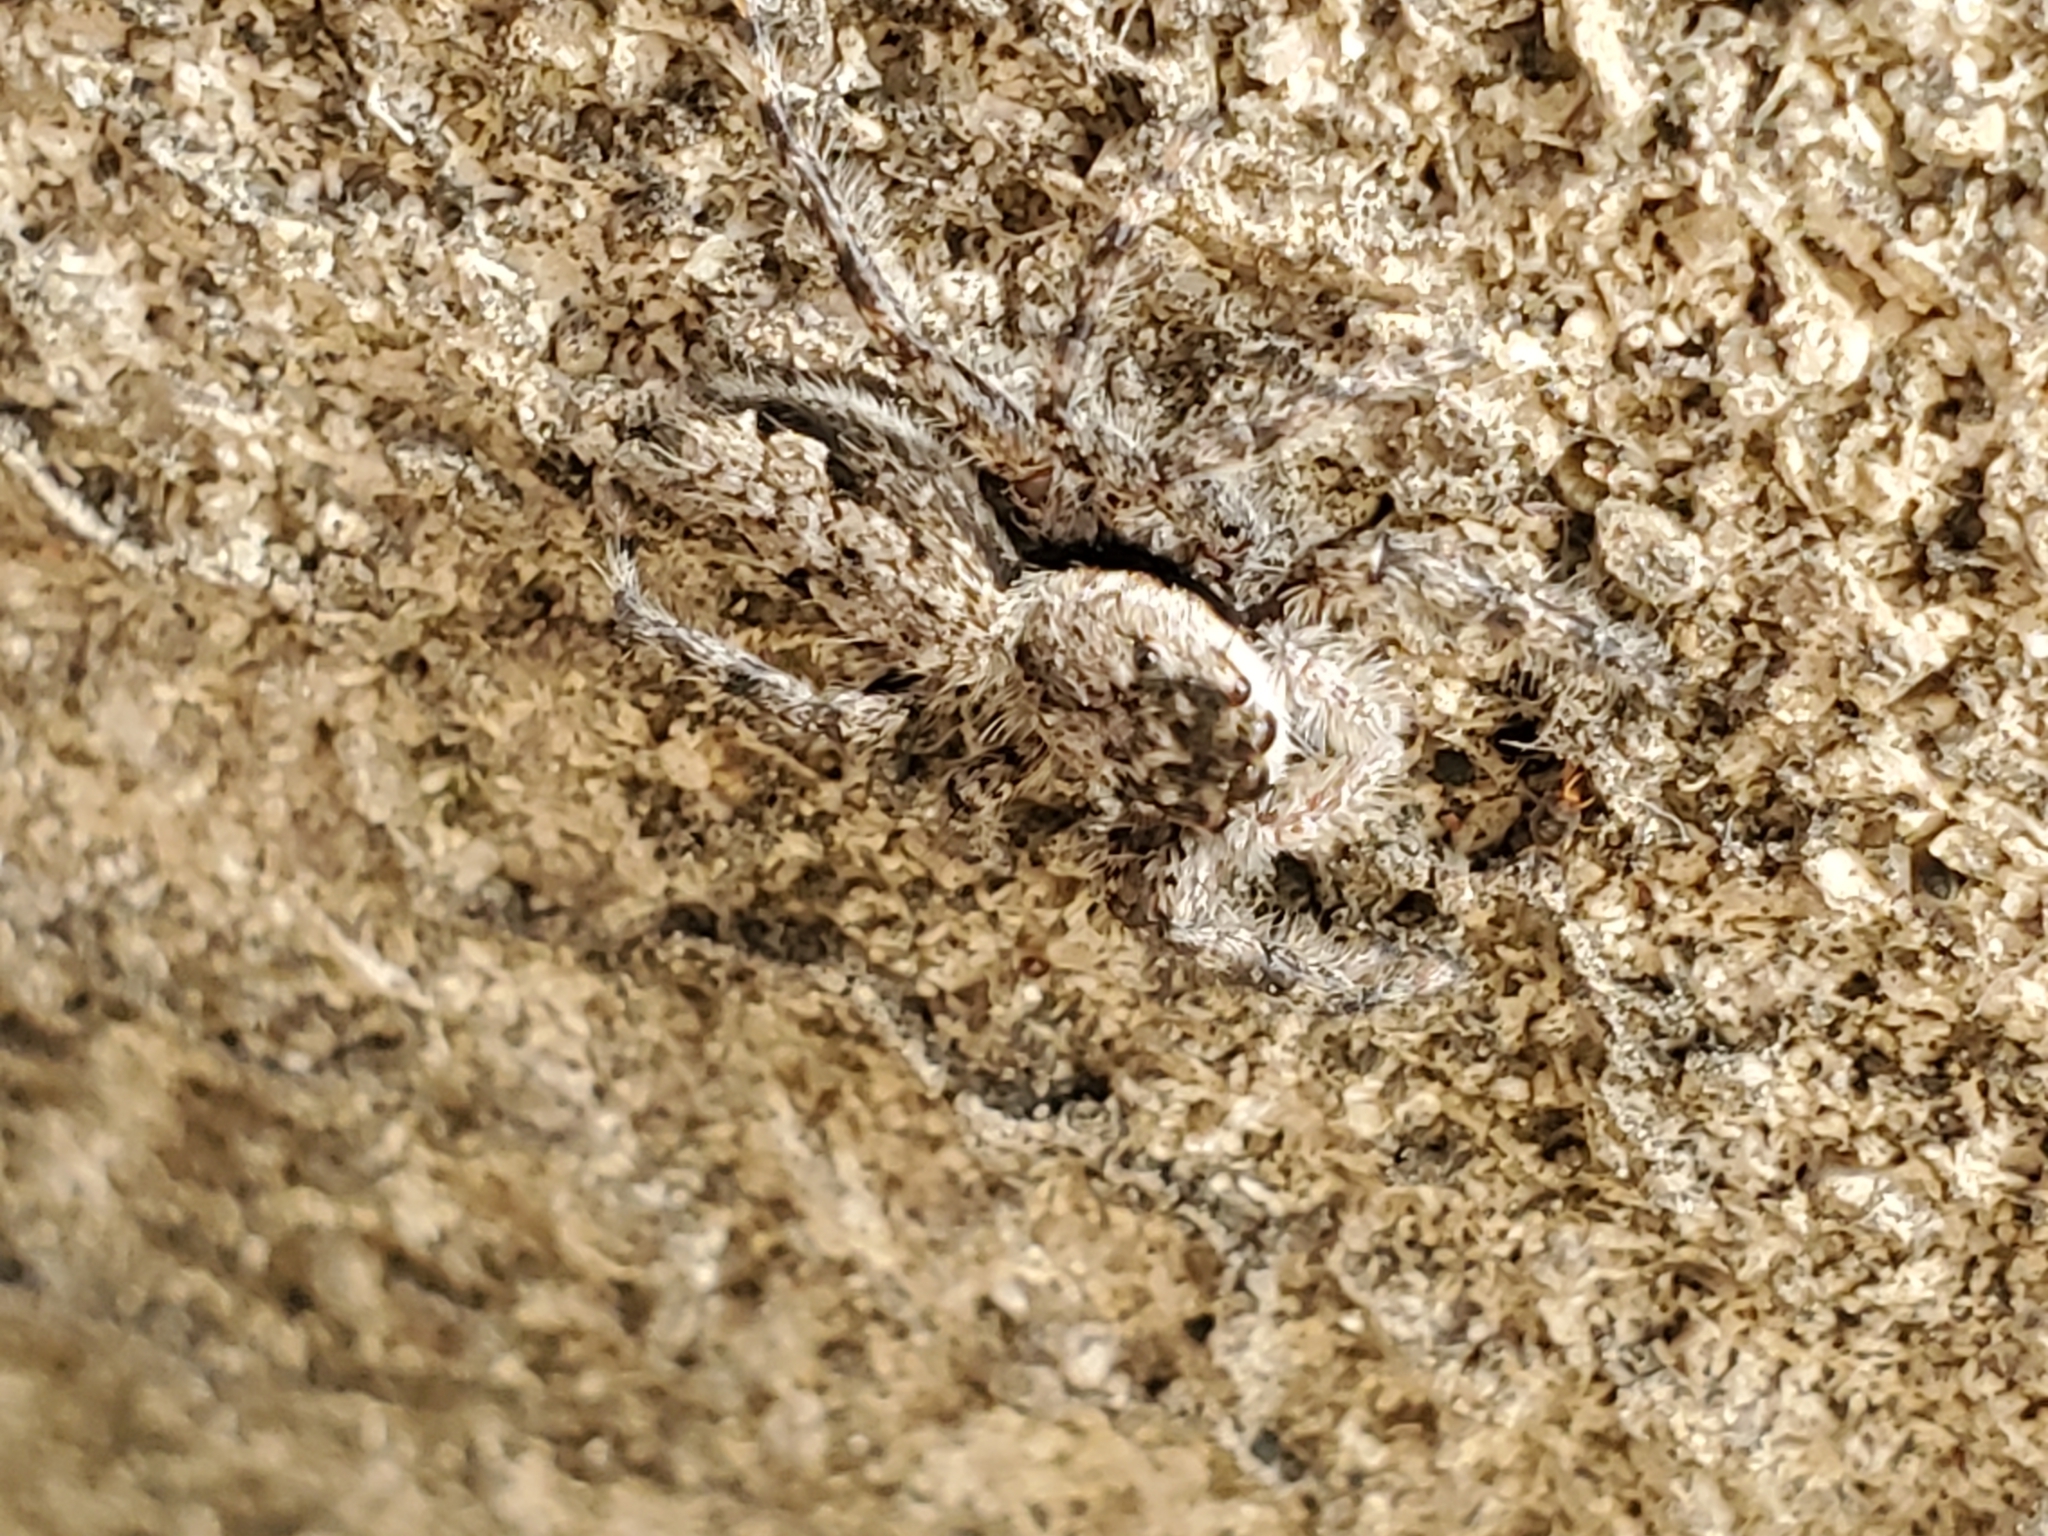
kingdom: Animalia
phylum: Arthropoda
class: Arachnida
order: Araneae
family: Salticidae
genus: Platycryptus
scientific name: Platycryptus undatus
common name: Tan jumping spider
